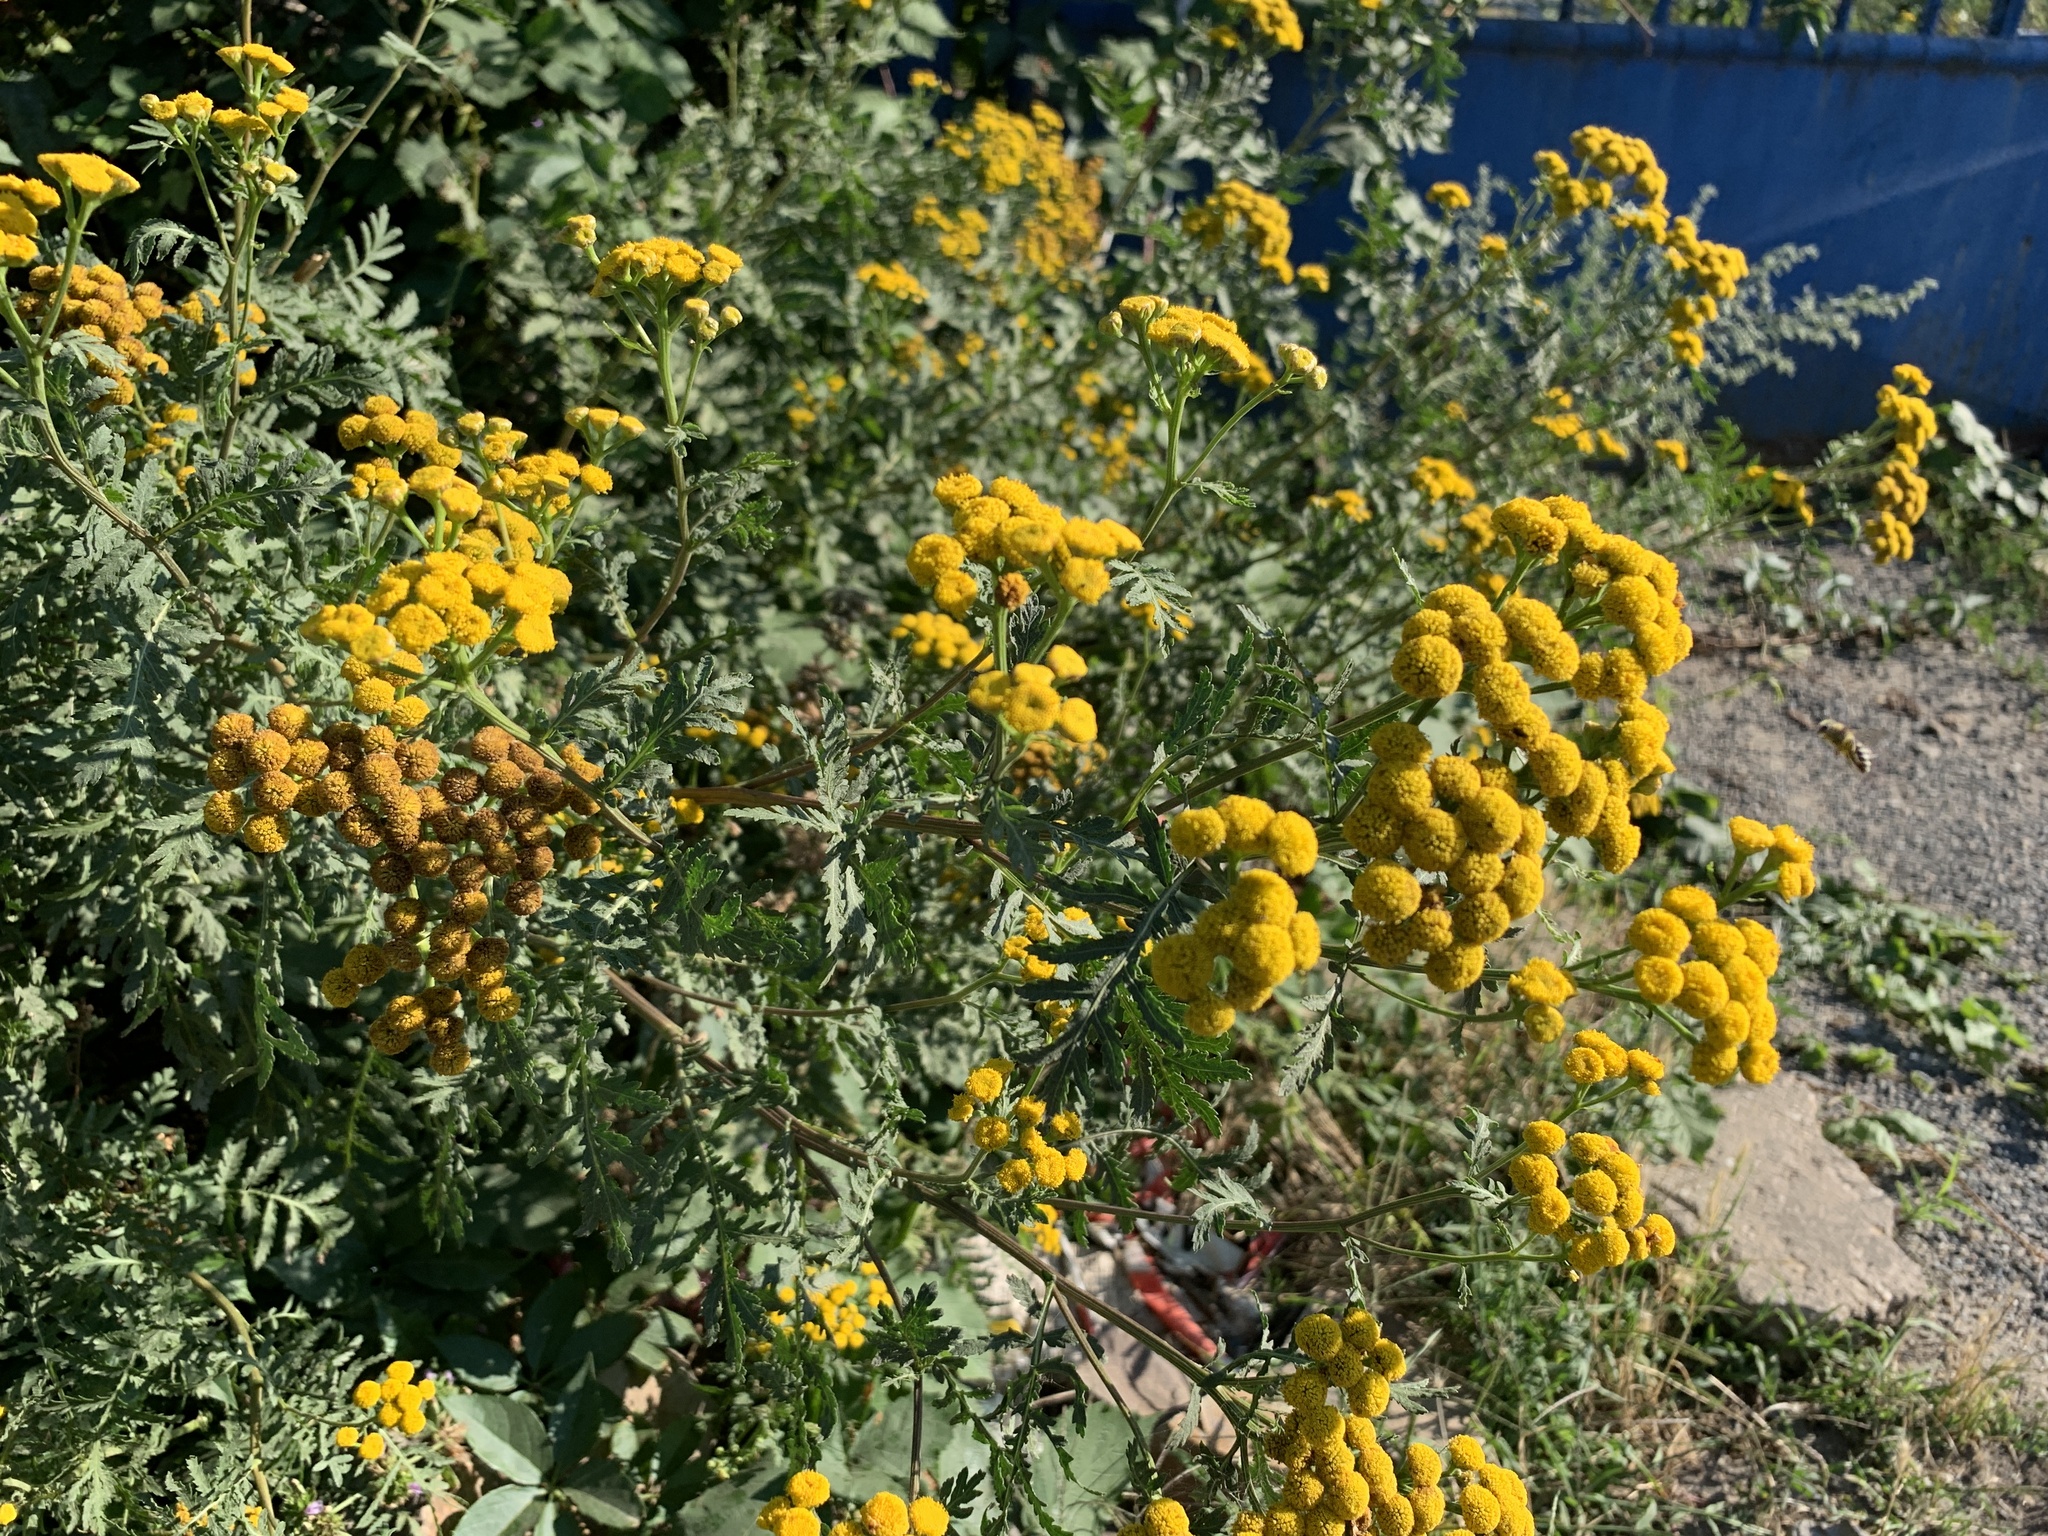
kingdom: Plantae
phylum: Tracheophyta
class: Magnoliopsida
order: Asterales
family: Asteraceae
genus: Tanacetum
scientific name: Tanacetum vulgare
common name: Common tansy
